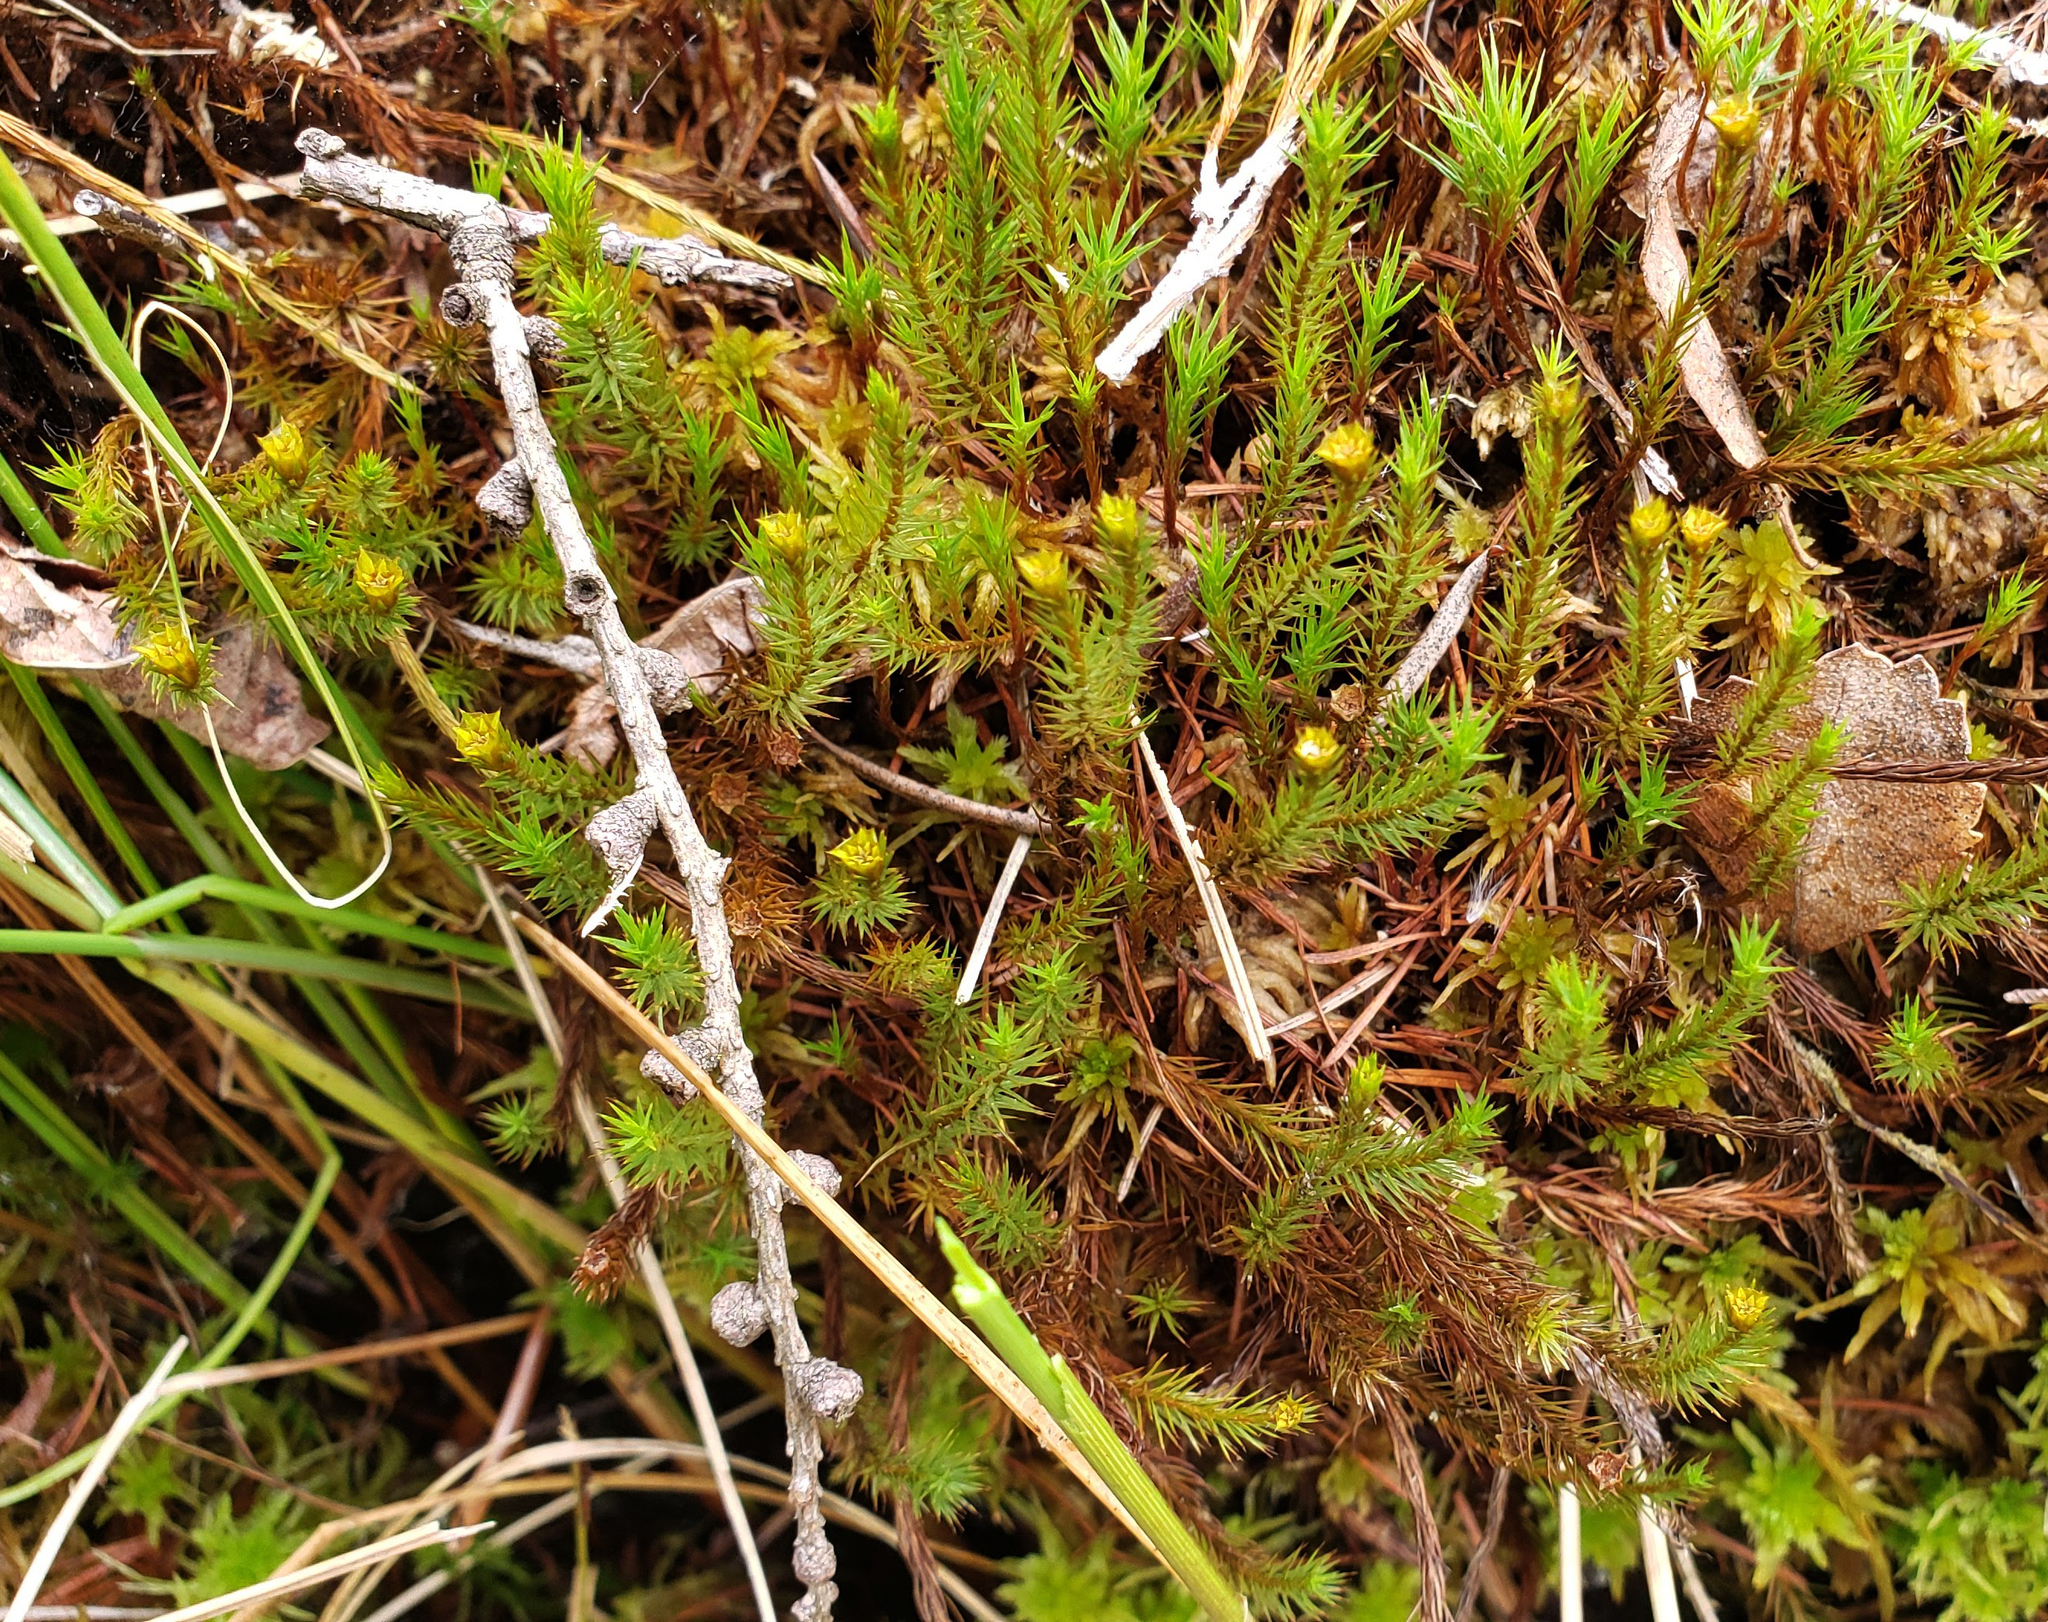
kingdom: Plantae
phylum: Bryophyta
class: Polytrichopsida
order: Polytrichales
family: Polytrichaceae
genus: Polytrichum
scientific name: Polytrichum strictum
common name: Bog haircap moss
